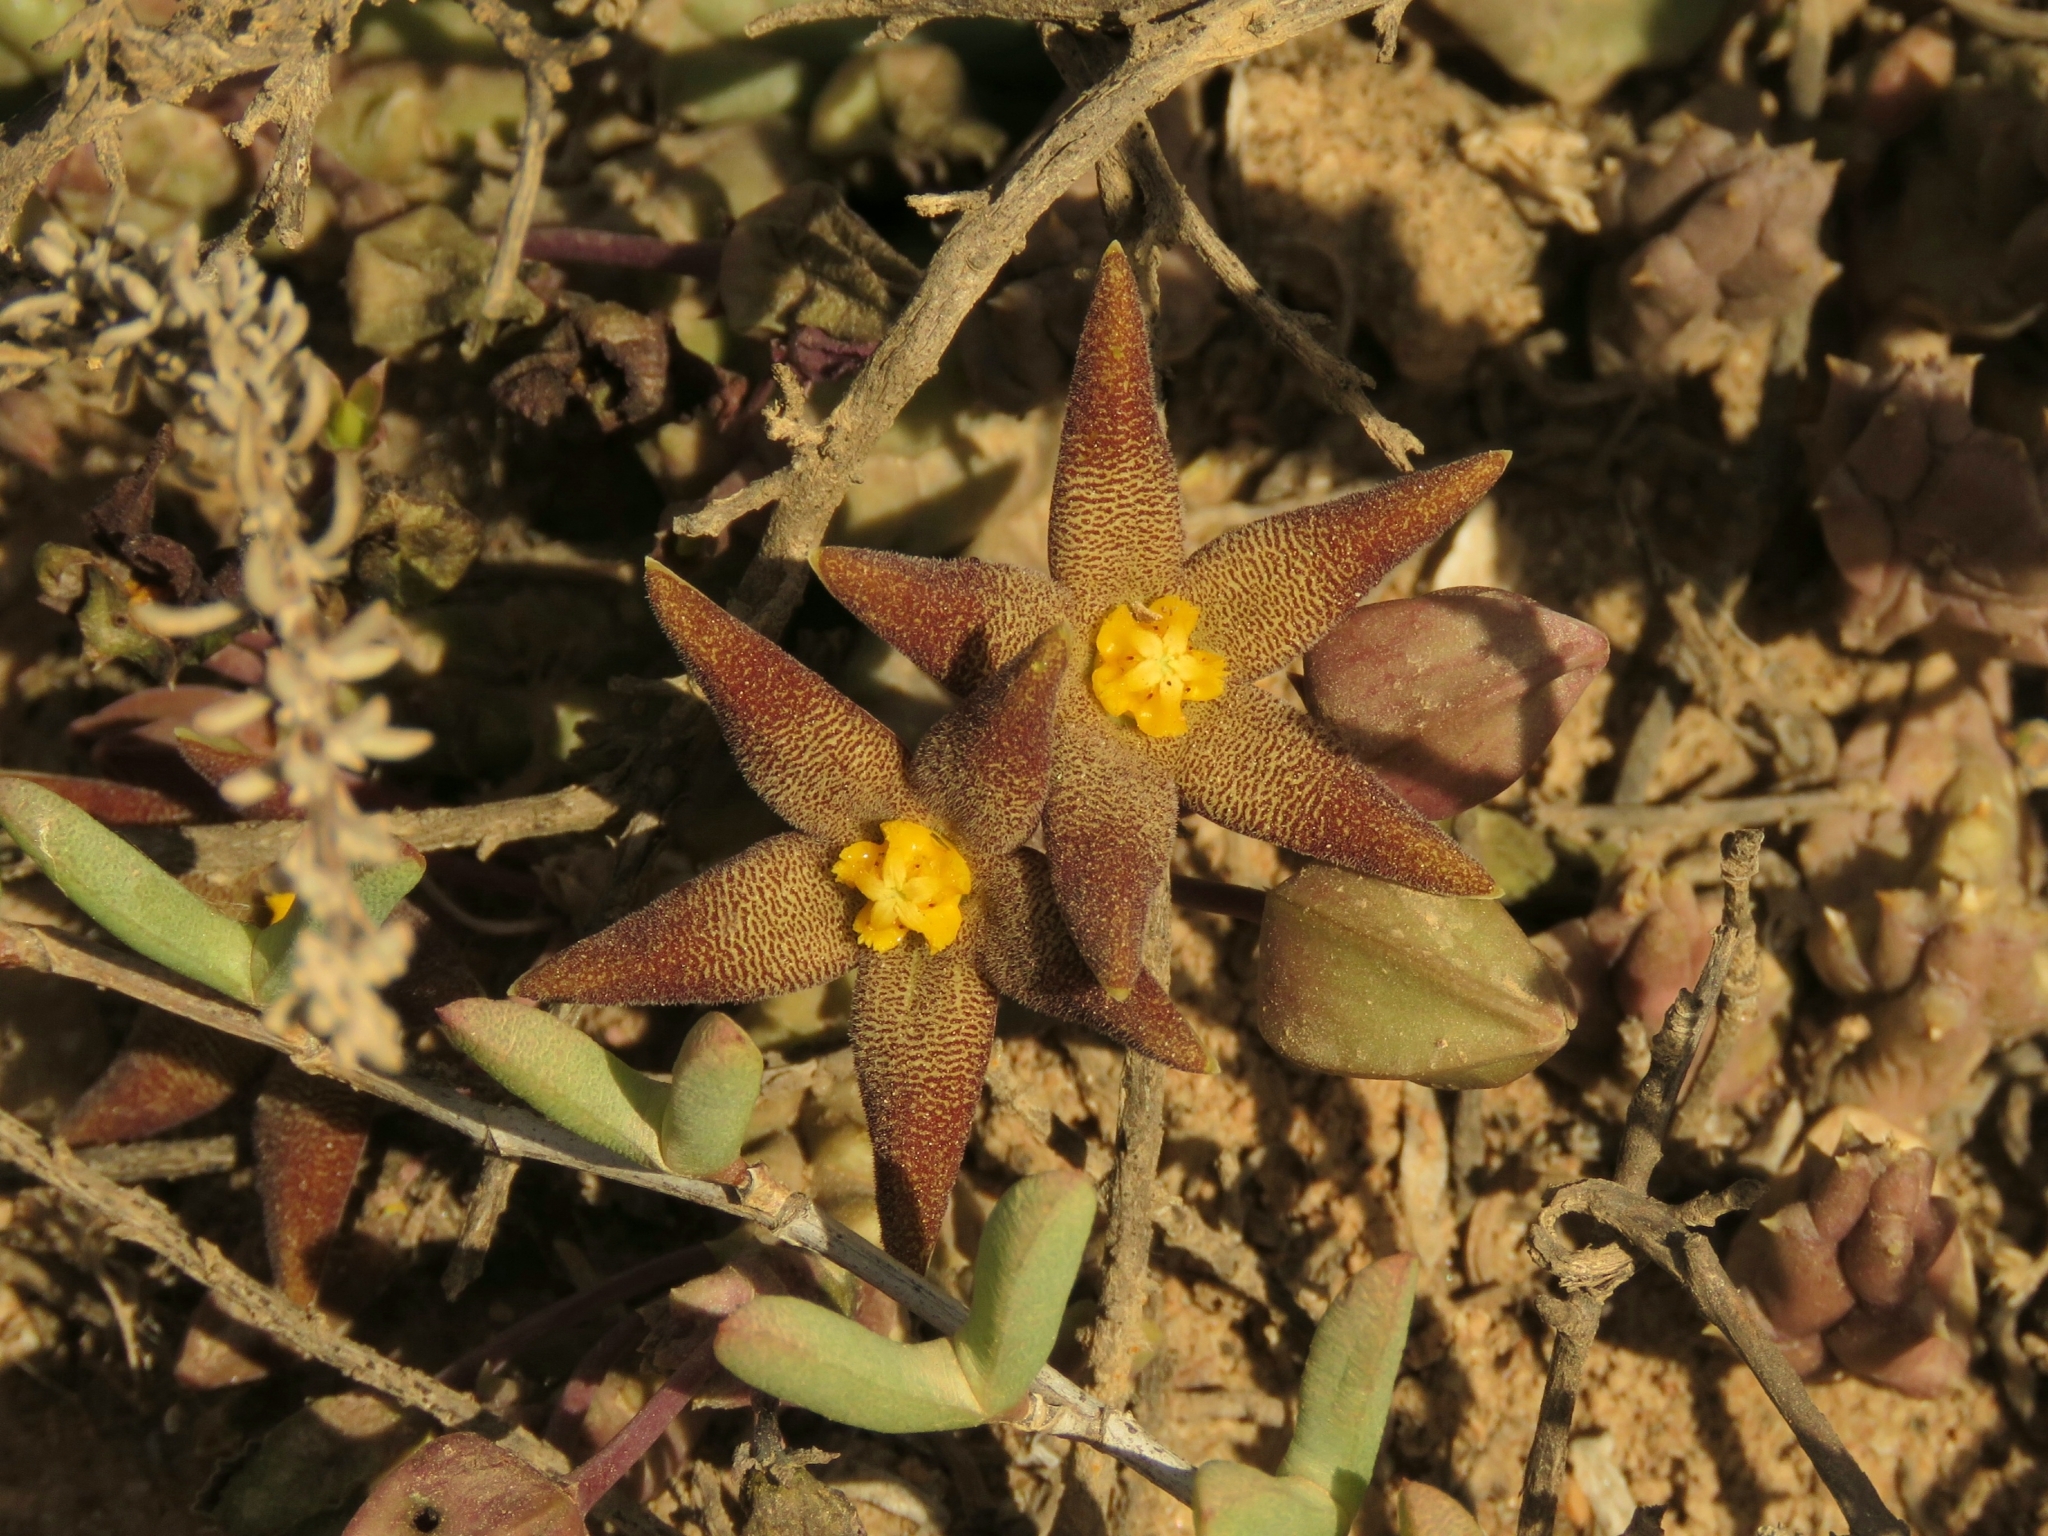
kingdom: Plantae
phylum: Tracheophyta
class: Magnoliopsida
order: Gentianales
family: Apocynaceae
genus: Ceropegia
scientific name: Ceropegia geminata
